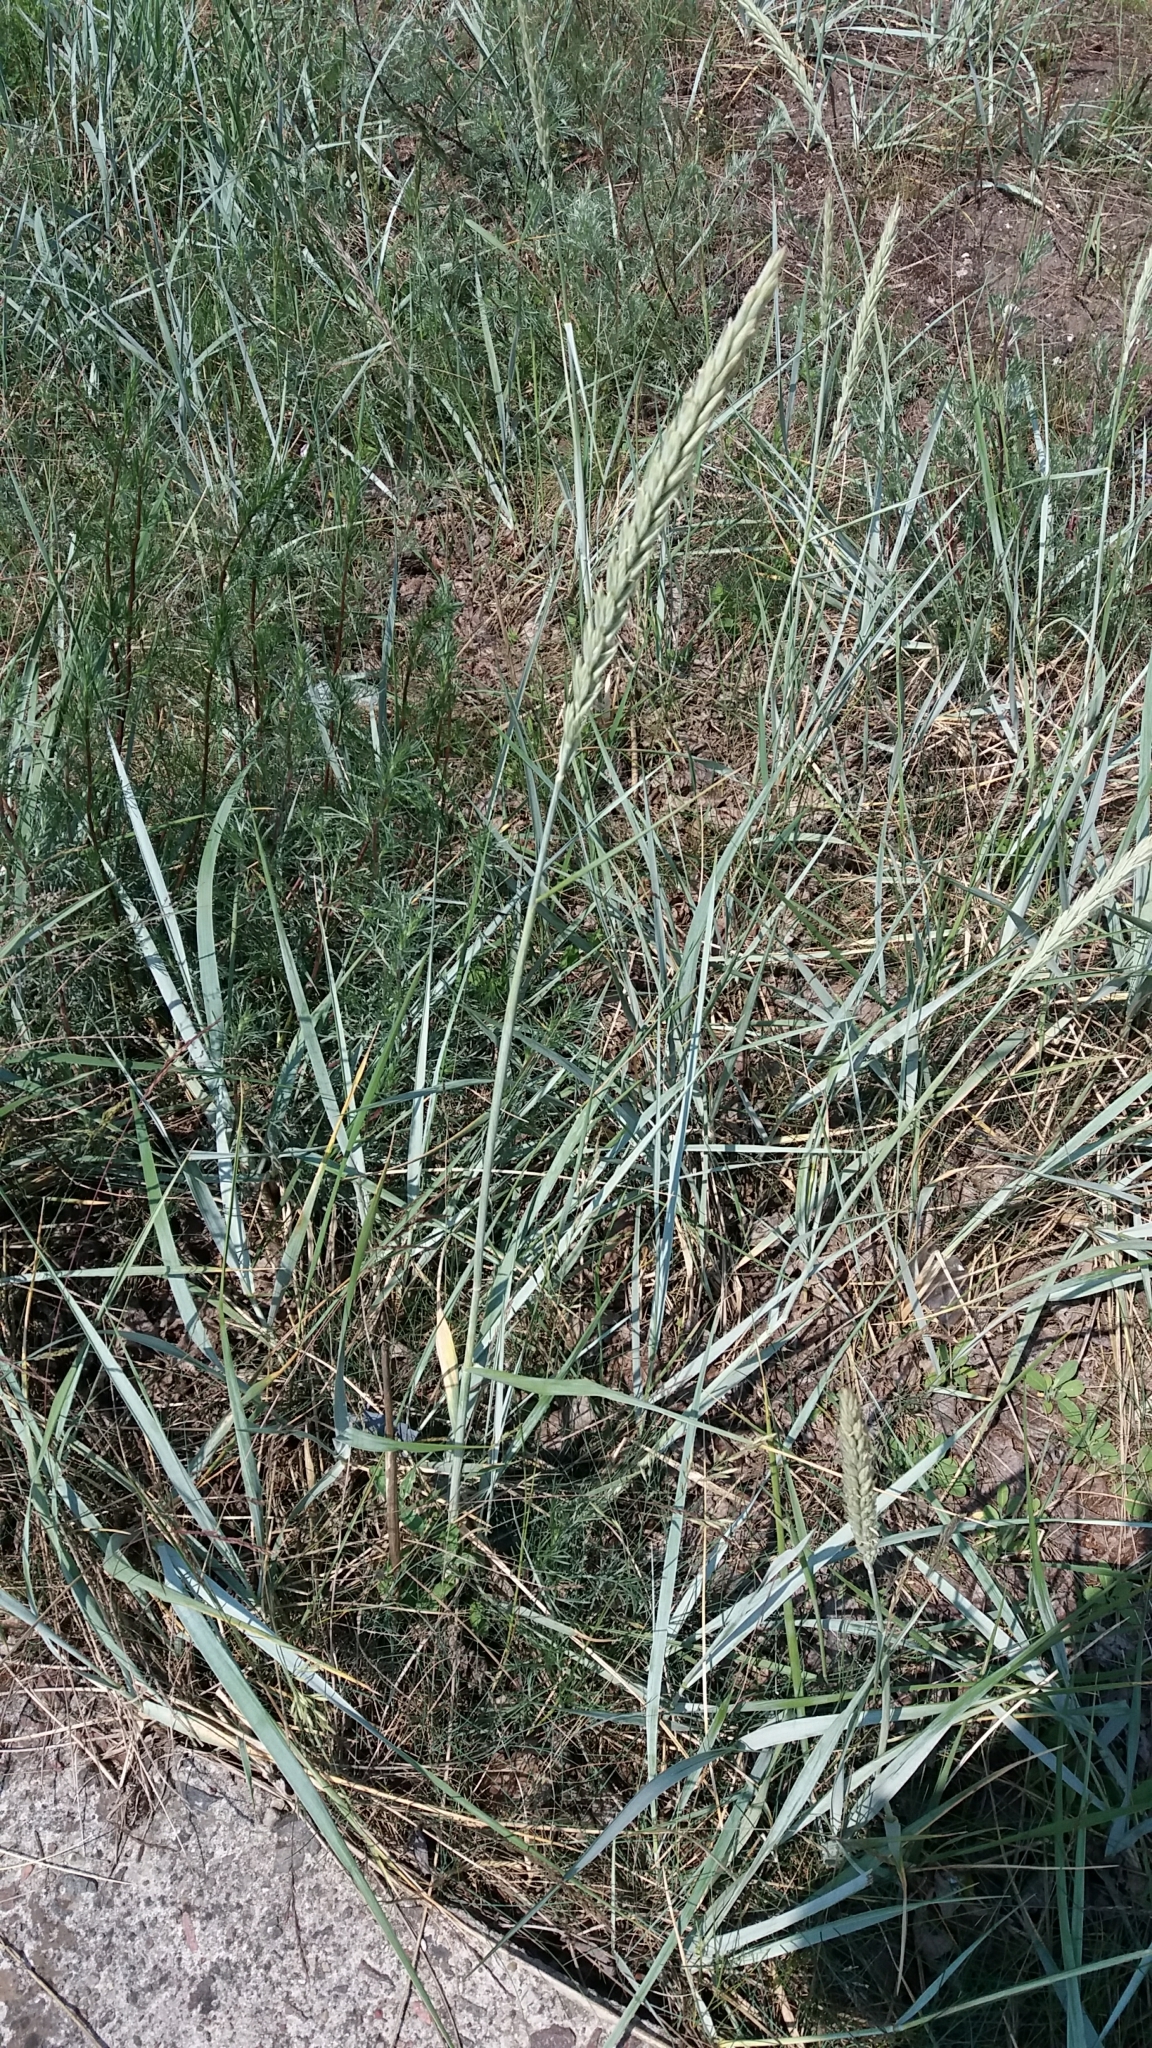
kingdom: Plantae
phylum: Tracheophyta
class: Liliopsida
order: Poales
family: Poaceae
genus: Leymus
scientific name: Leymus arenarius
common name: Lyme-grass
